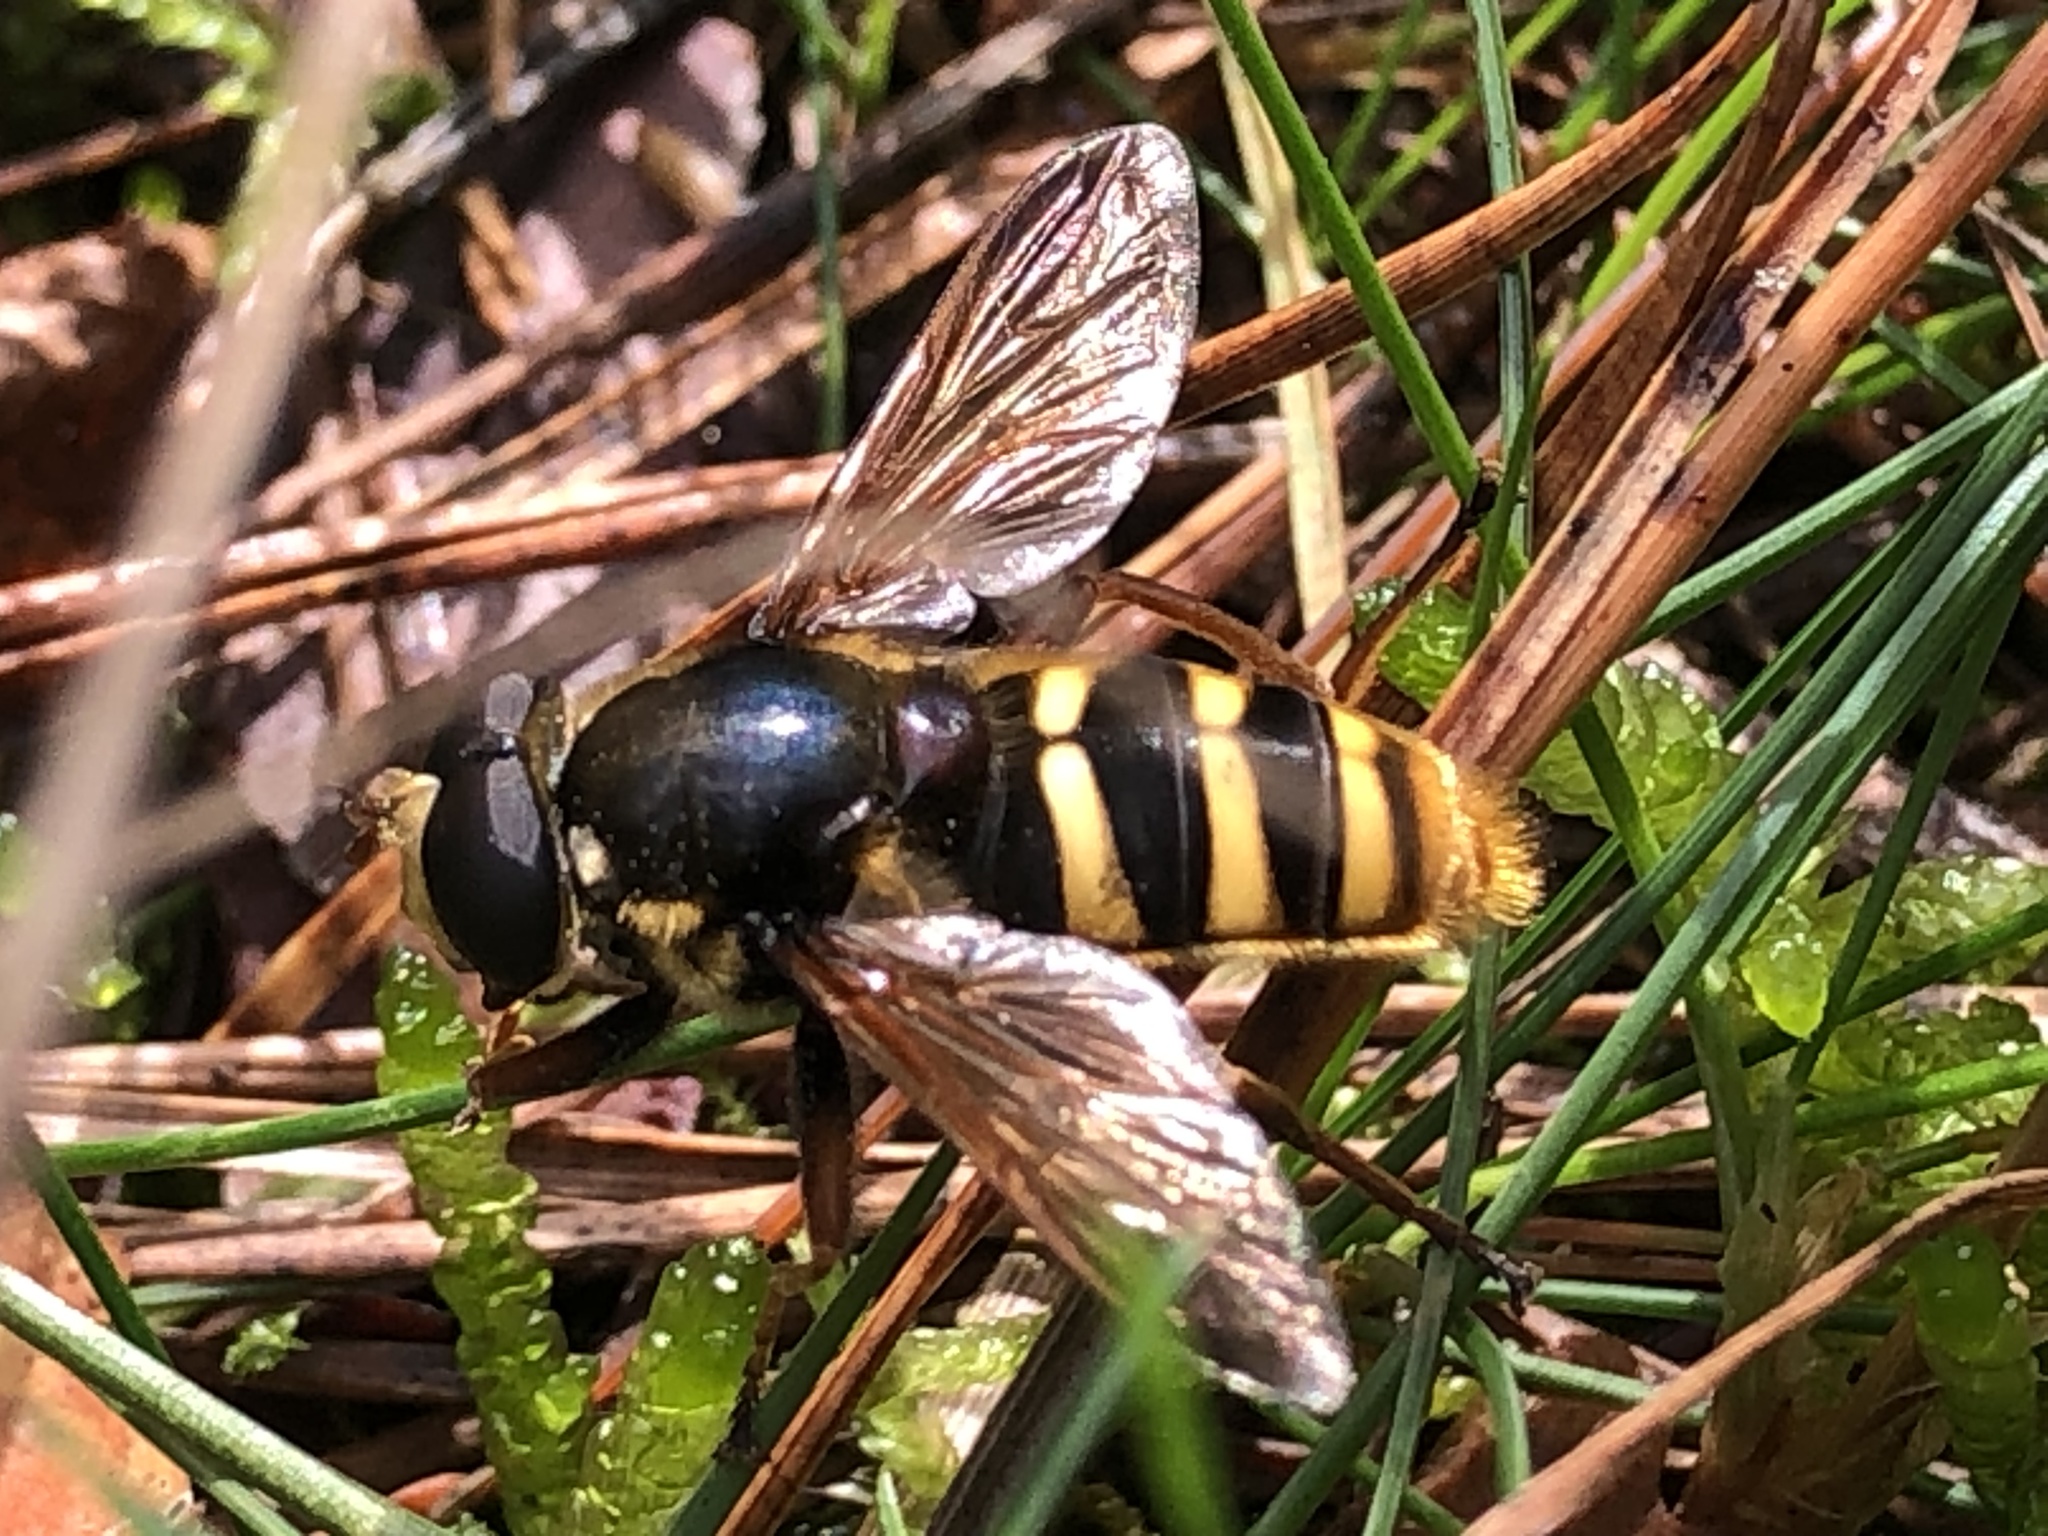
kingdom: Animalia
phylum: Arthropoda
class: Insecta
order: Diptera
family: Syrphidae
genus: Sericomyia
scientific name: Sericomyia silentis
